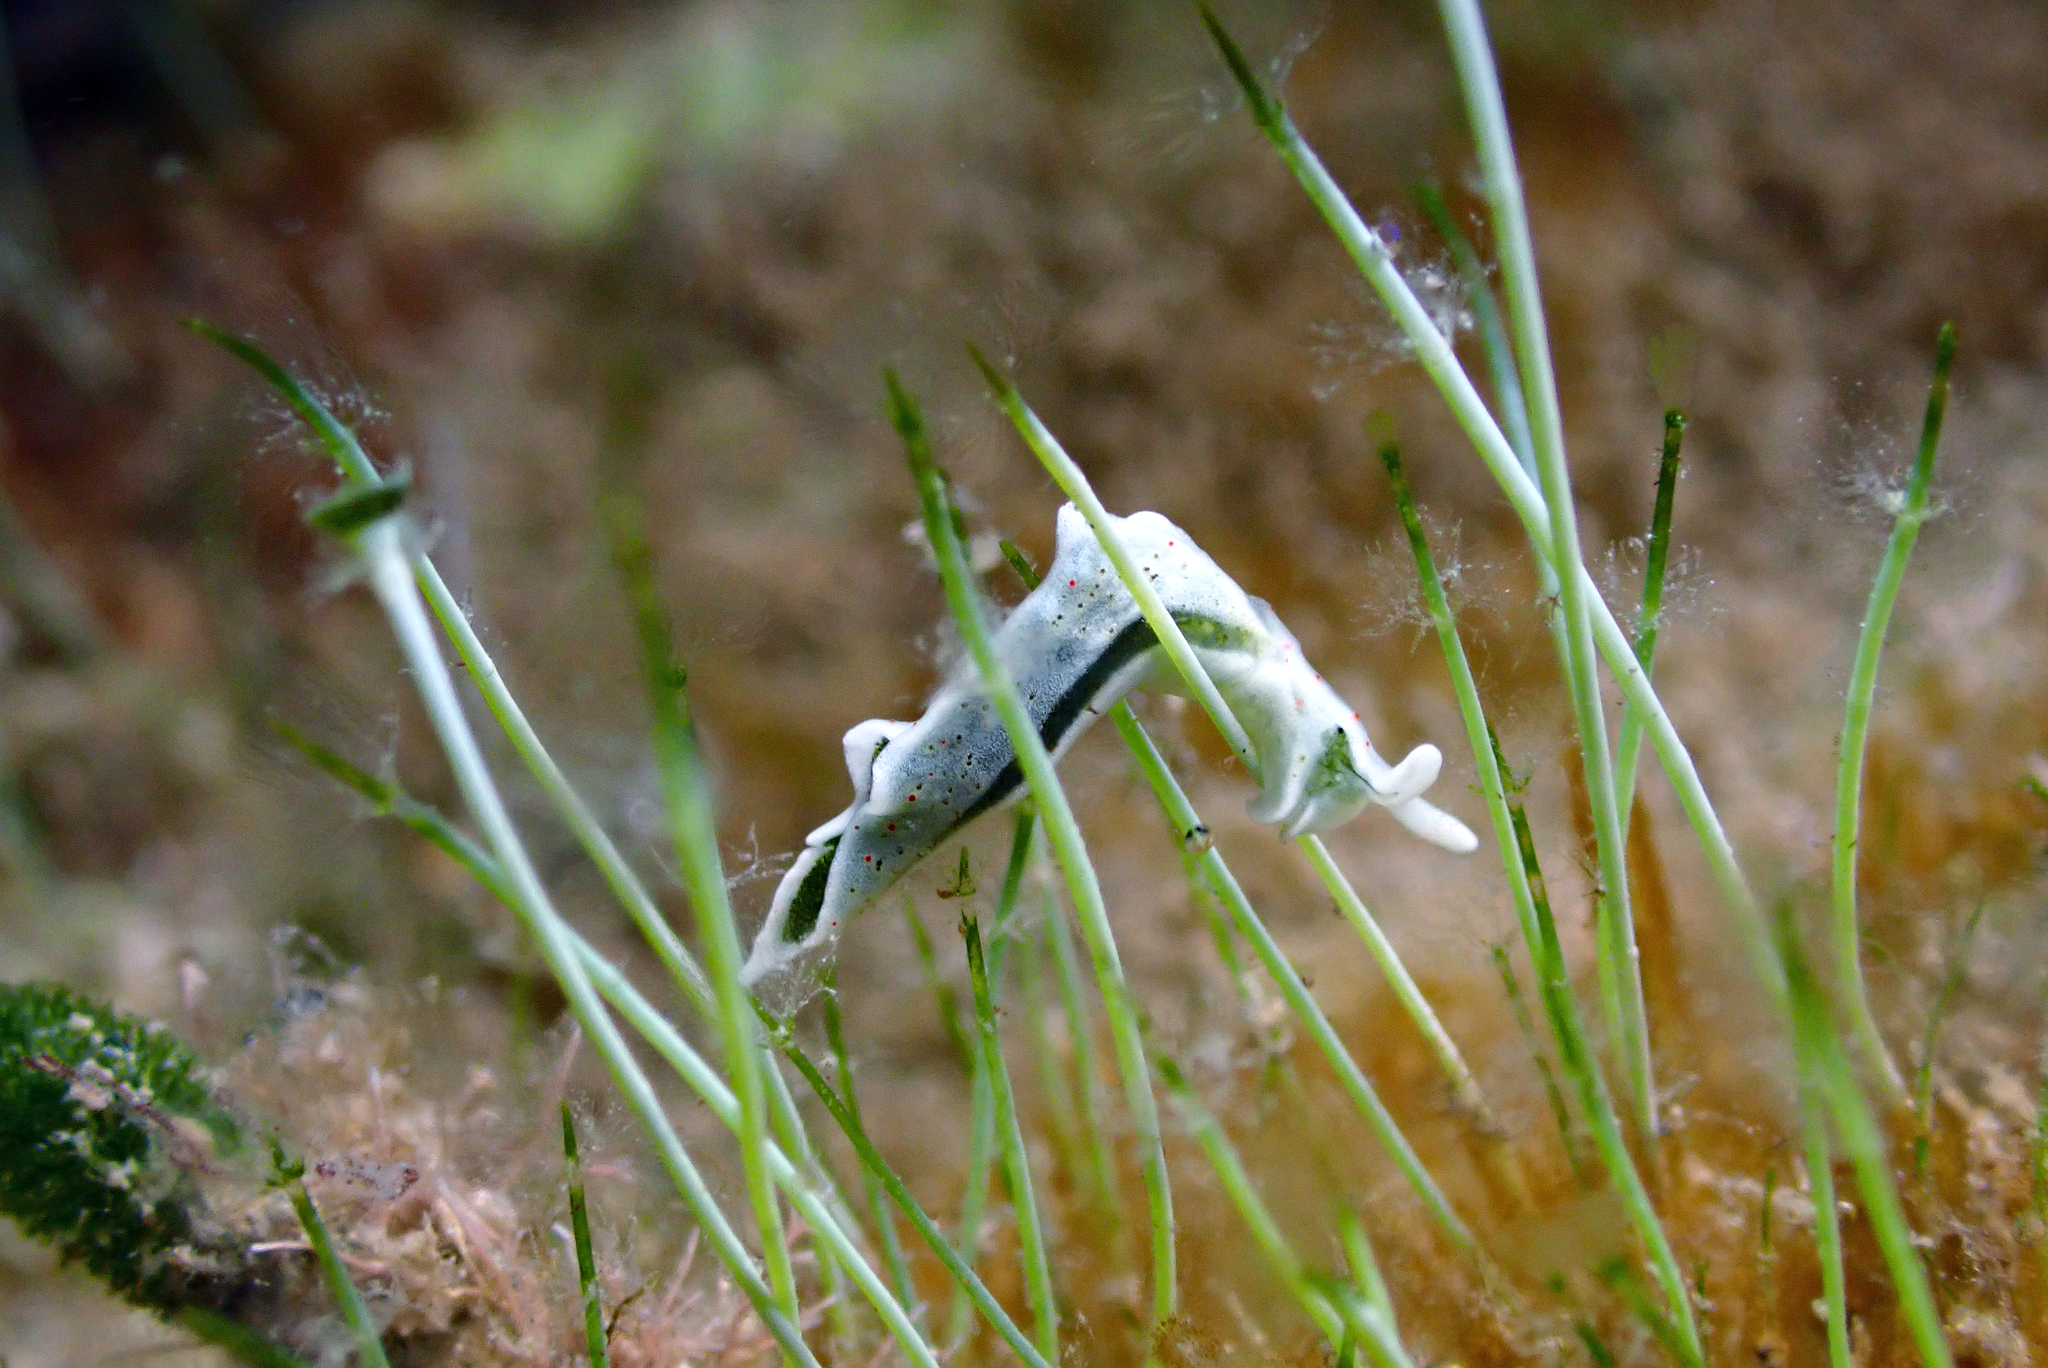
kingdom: Animalia
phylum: Mollusca
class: Gastropoda
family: Plakobranchidae
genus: Elysia
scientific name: Elysia timida
